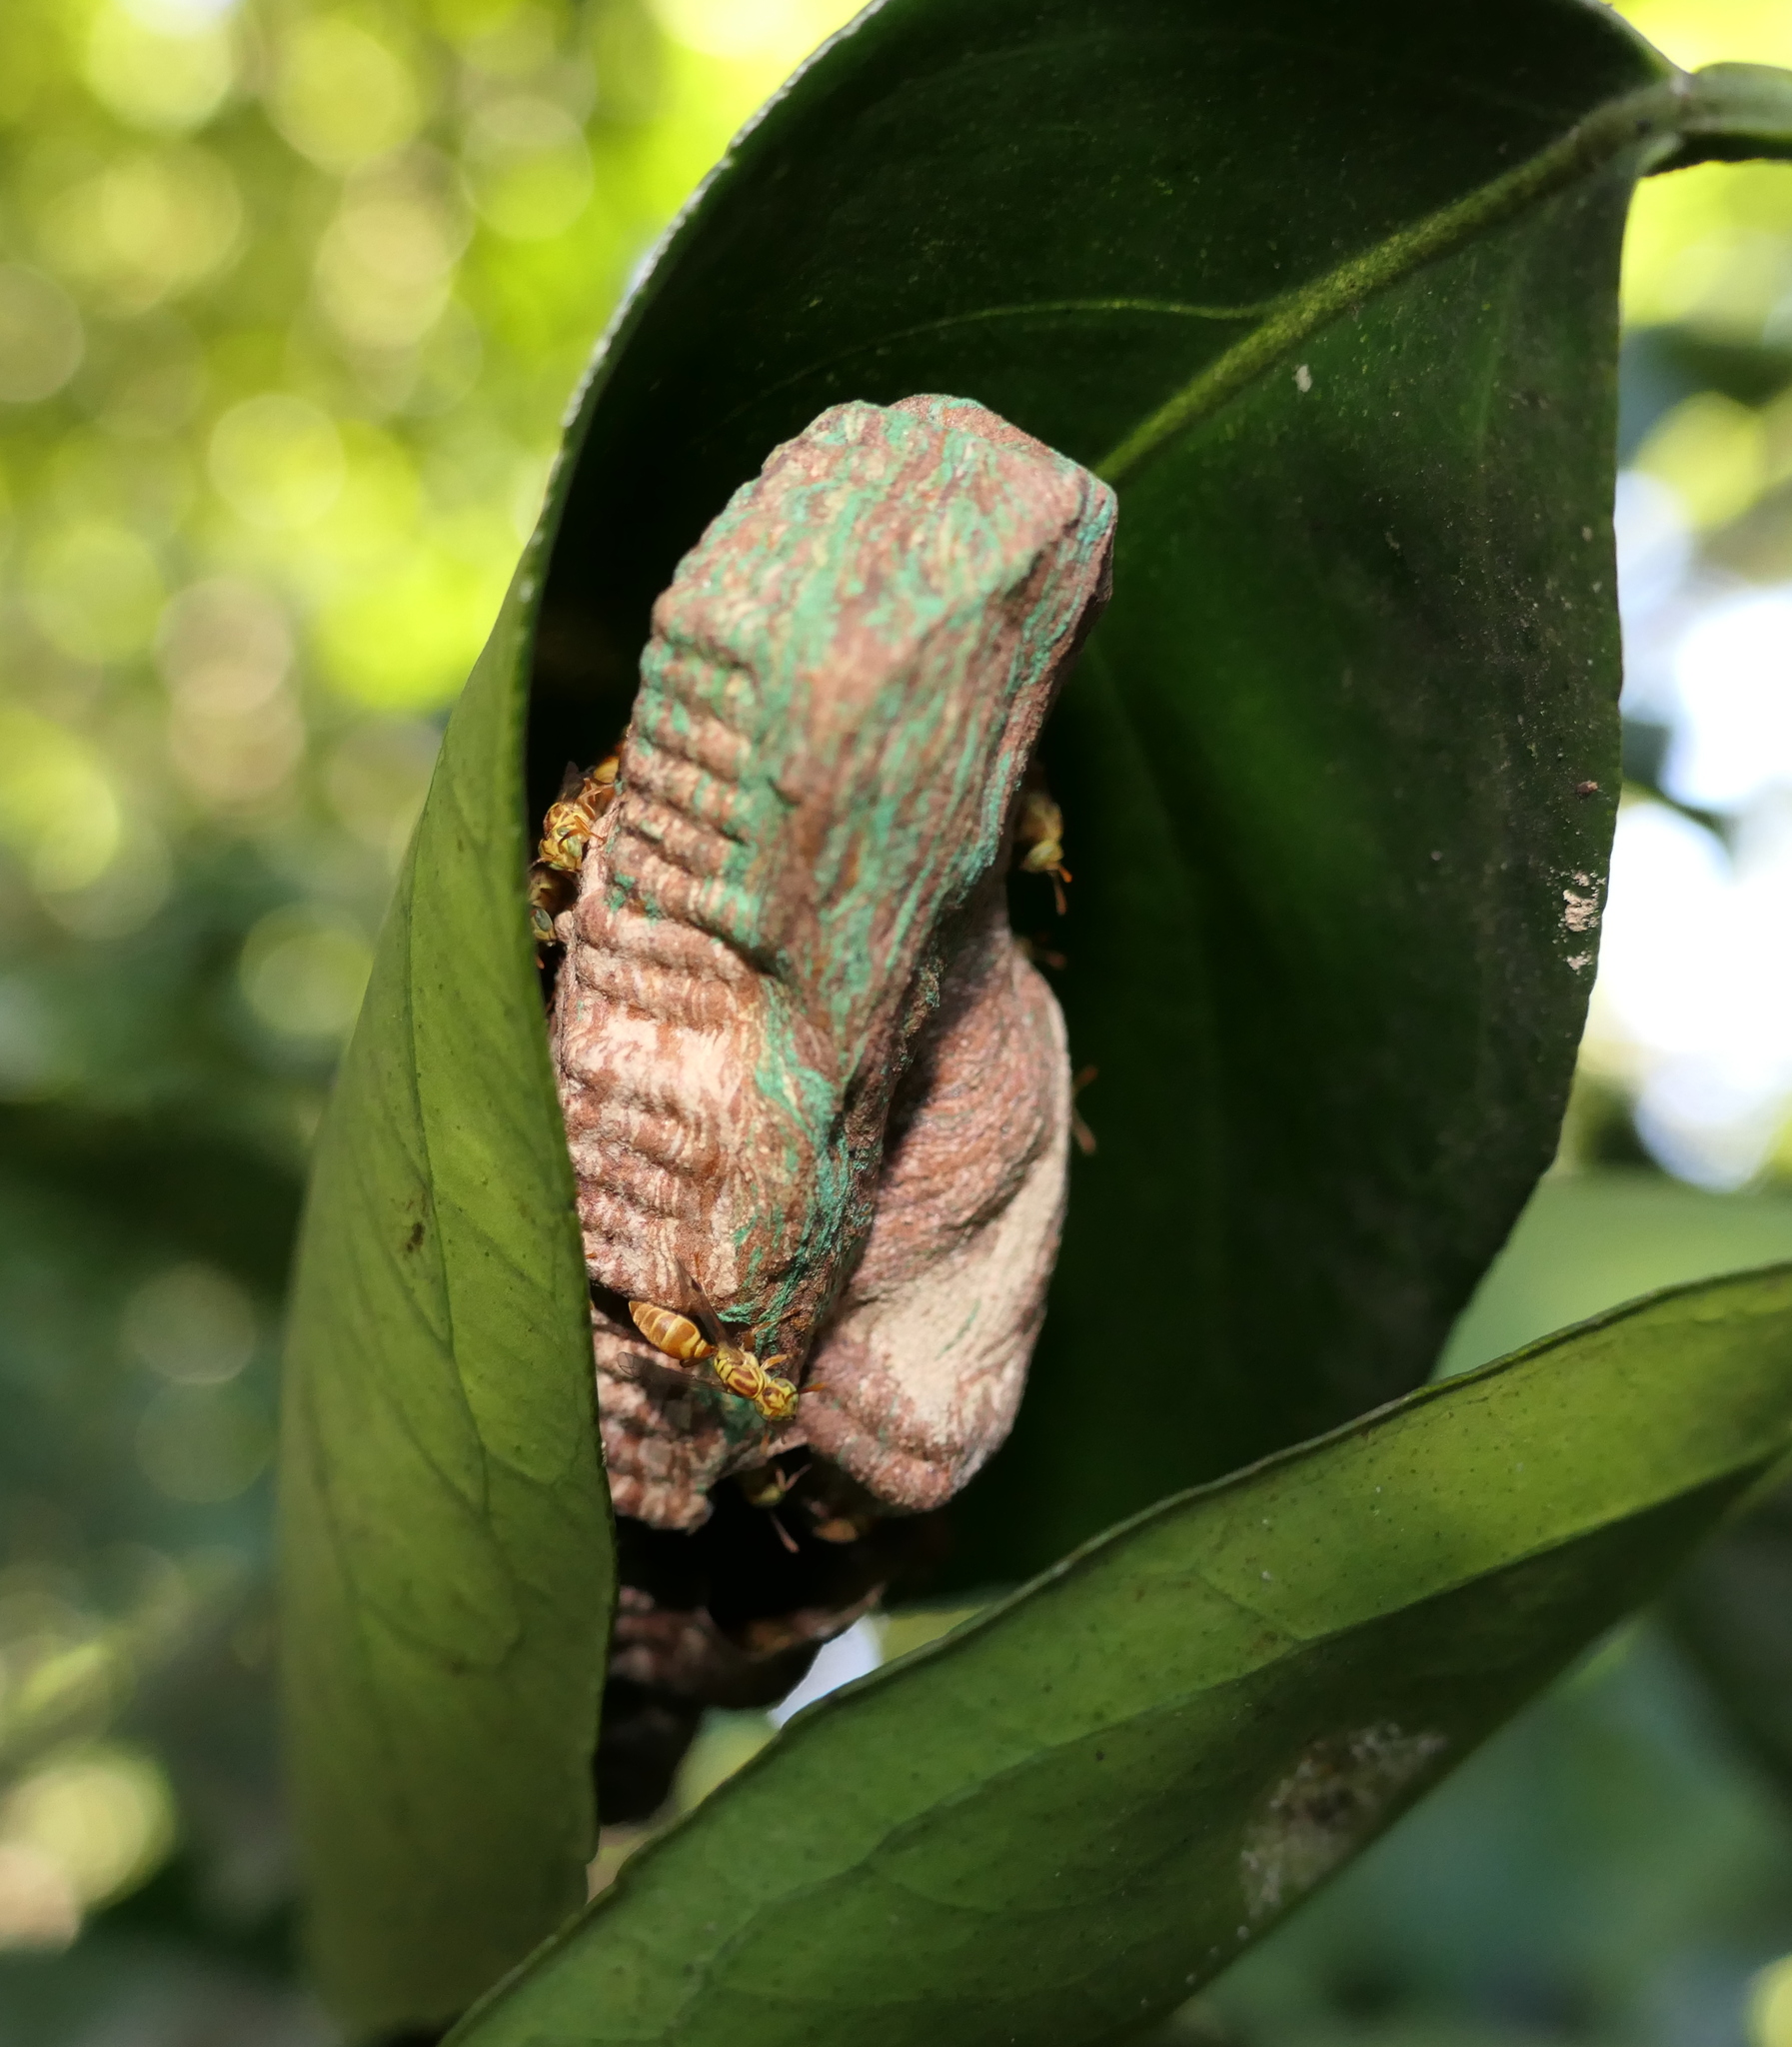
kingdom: Animalia
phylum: Arthropoda
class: Insecta
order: Hymenoptera
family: Vespidae
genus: Protopolybia
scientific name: Protopolybia potiguara
